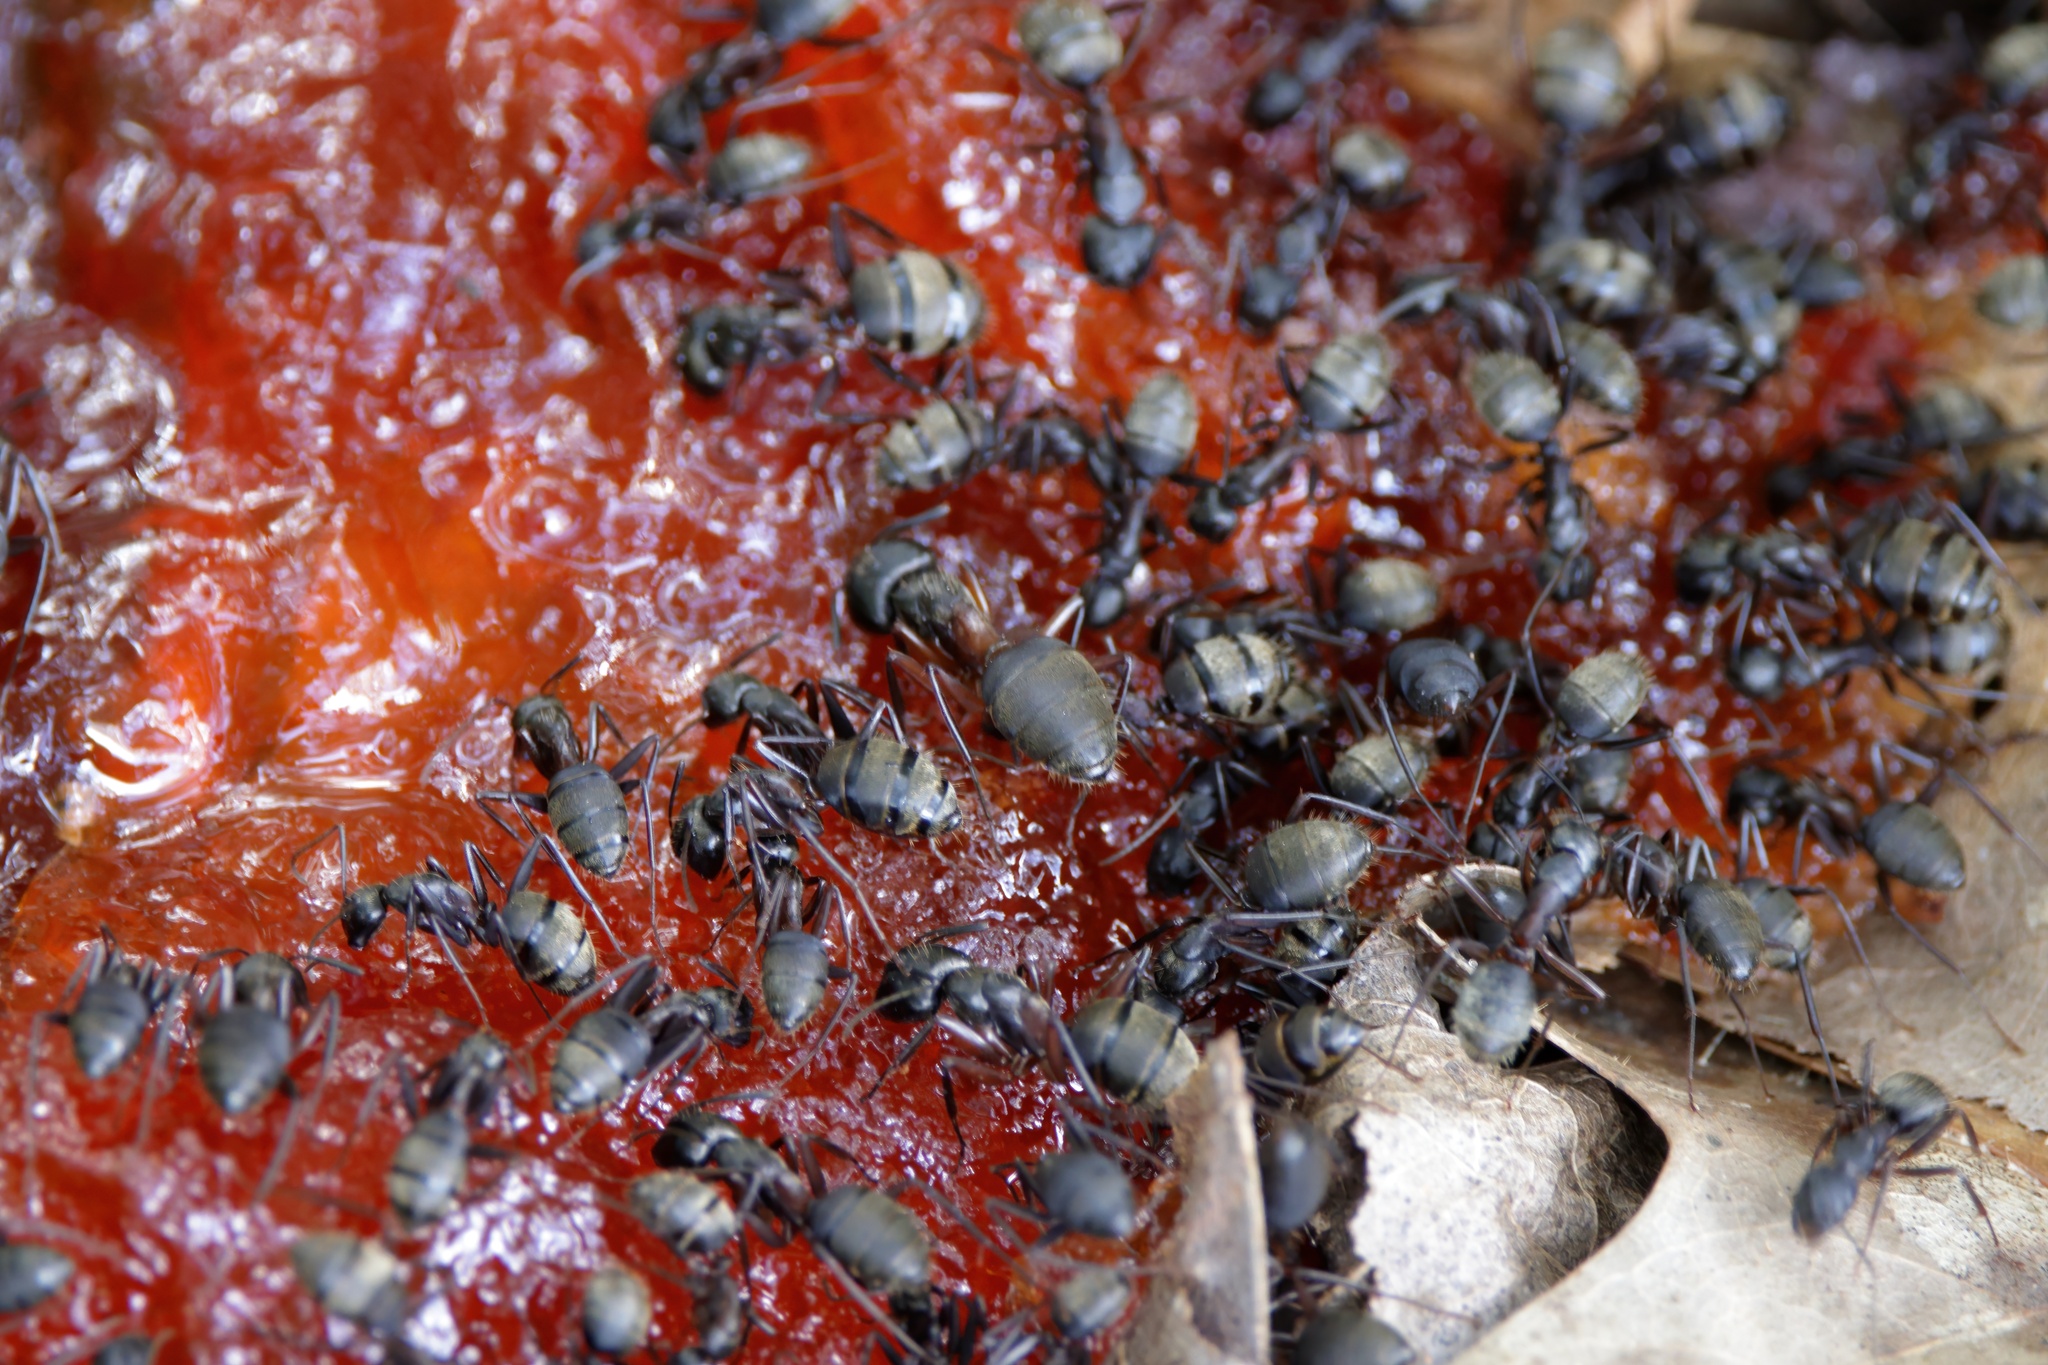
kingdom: Animalia
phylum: Arthropoda
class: Insecta
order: Hymenoptera
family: Formicidae
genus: Camponotus
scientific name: Camponotus chromaiodes
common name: Red carpenter ant
